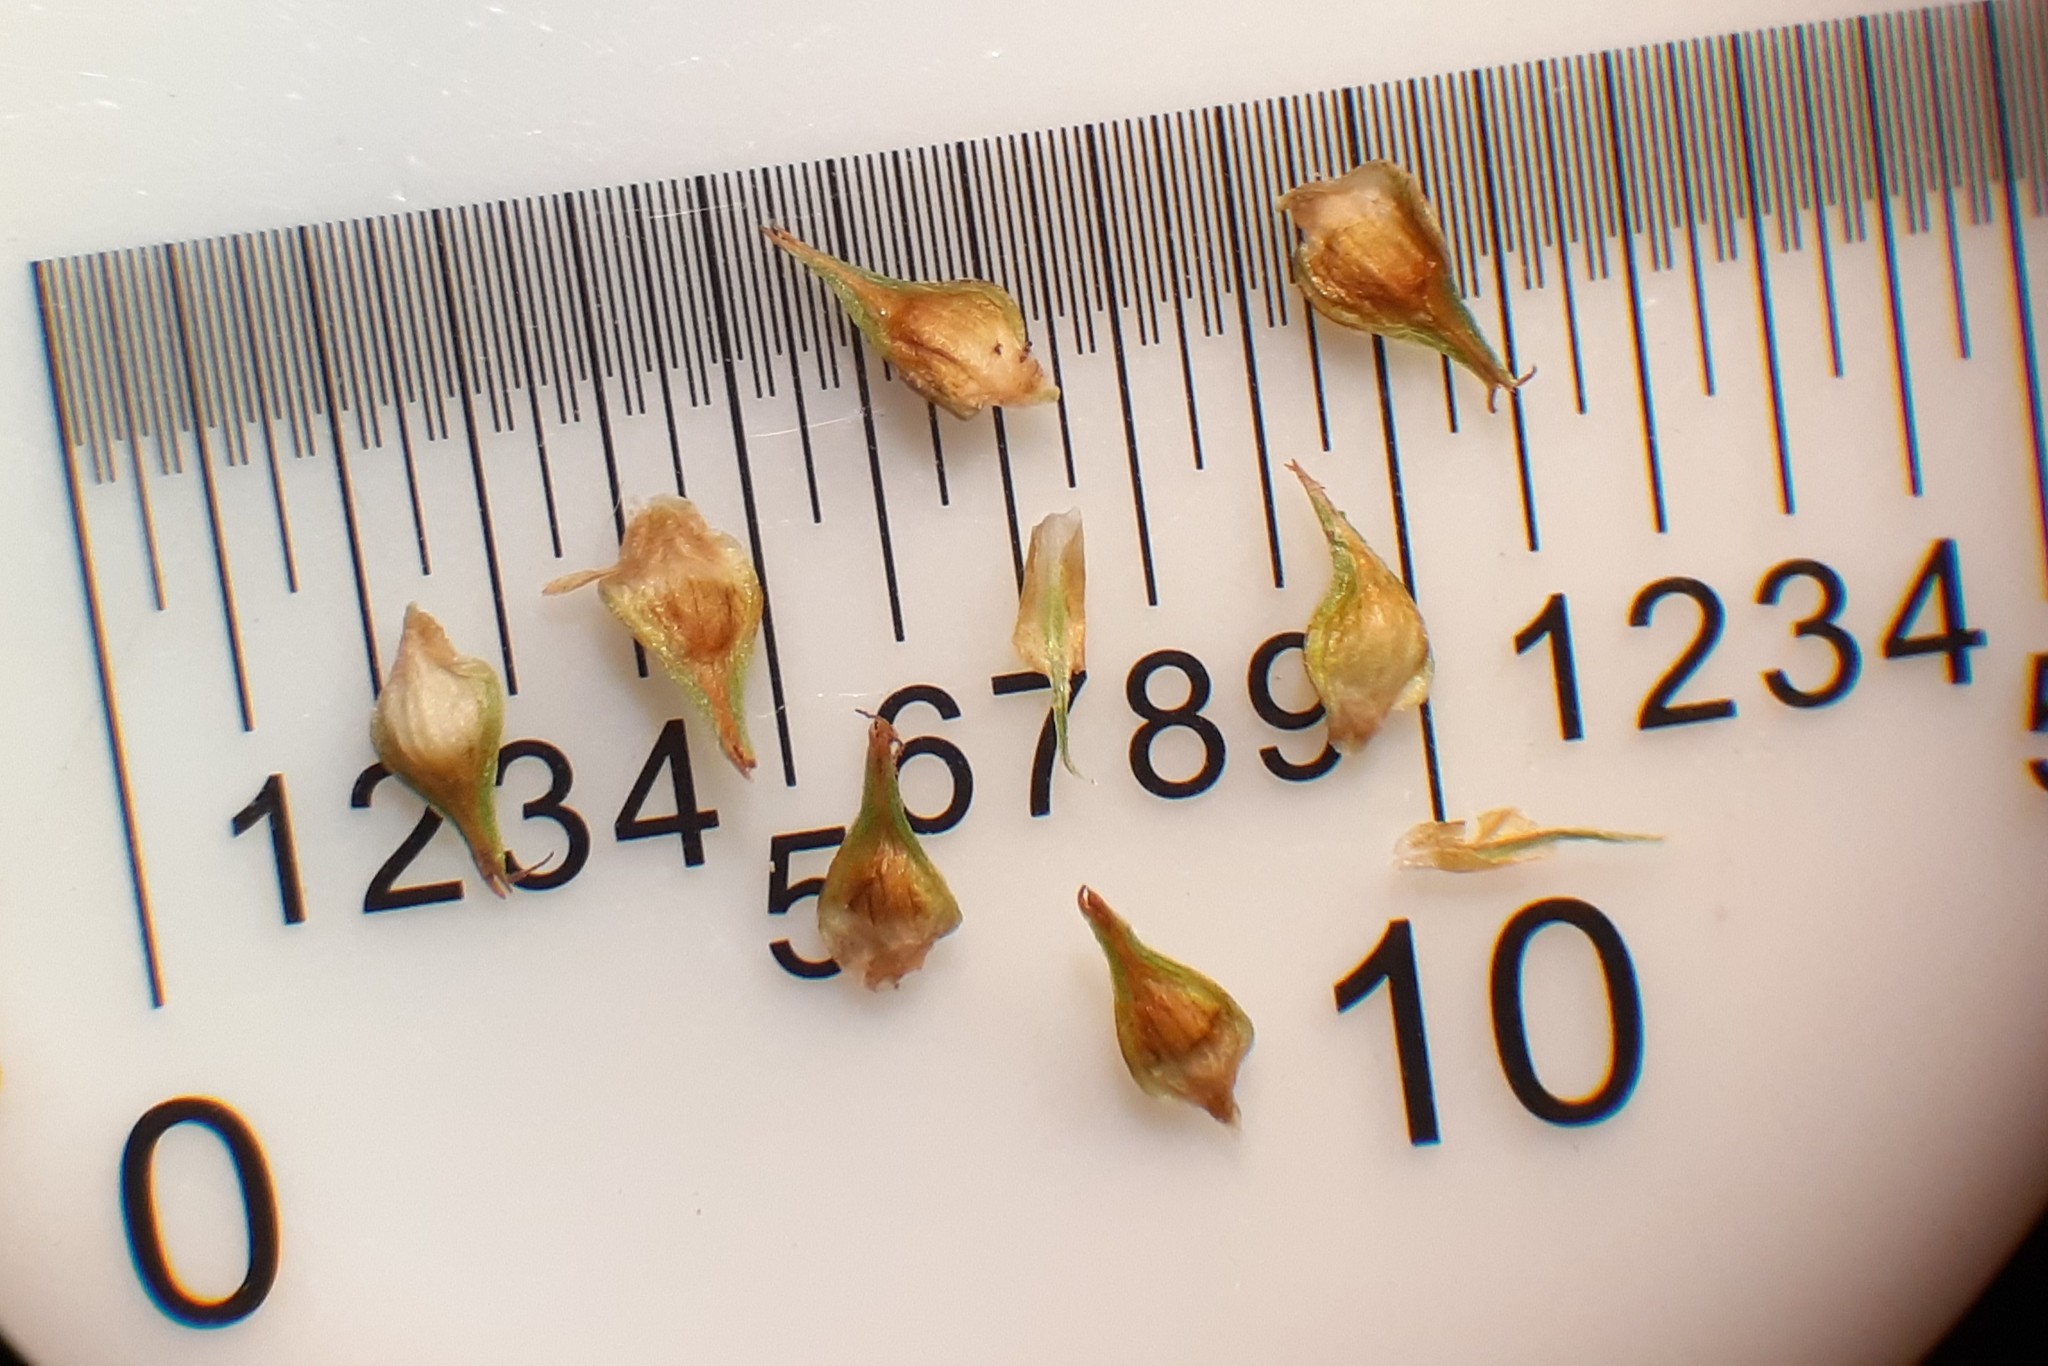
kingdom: Plantae
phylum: Tracheophyta
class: Liliopsida
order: Poales
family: Cyperaceae
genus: Carex
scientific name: Carex vulpinoidea
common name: American fox-sedge
